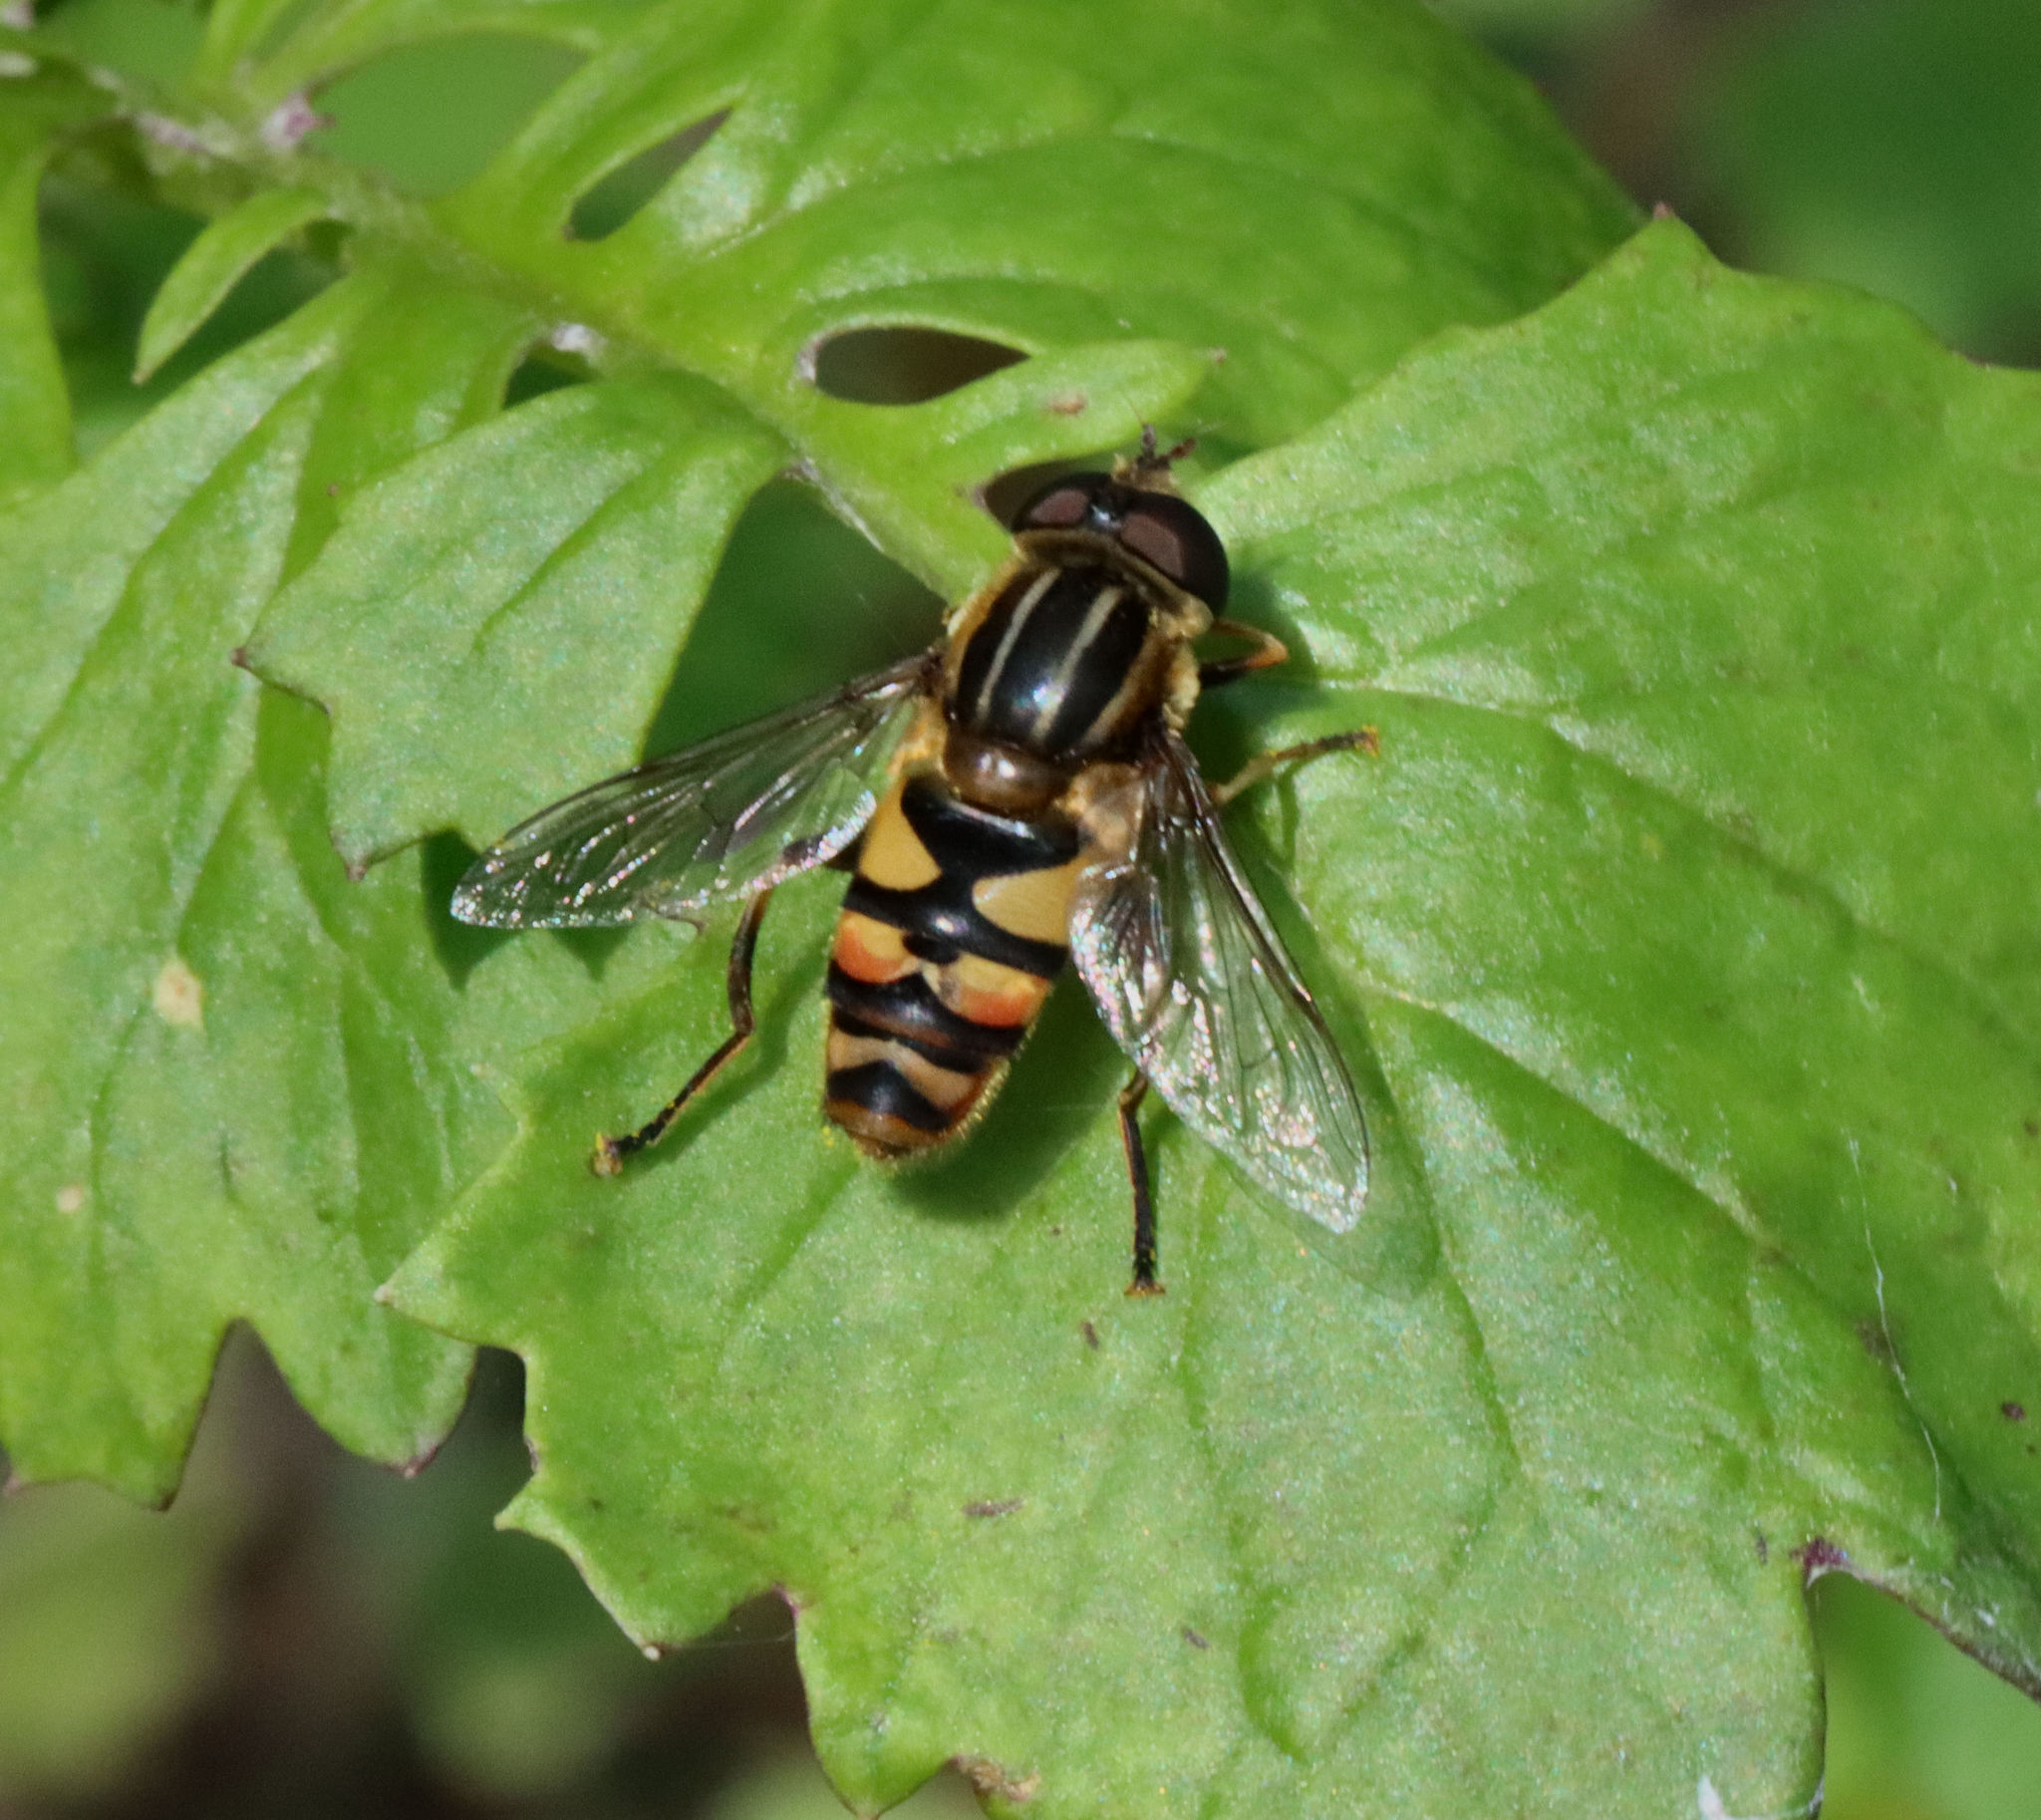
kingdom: Animalia
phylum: Arthropoda
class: Insecta
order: Diptera
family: Syrphidae
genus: Helophilus
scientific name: Helophilus fasciatus
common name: Narrow-headed marsh fly
